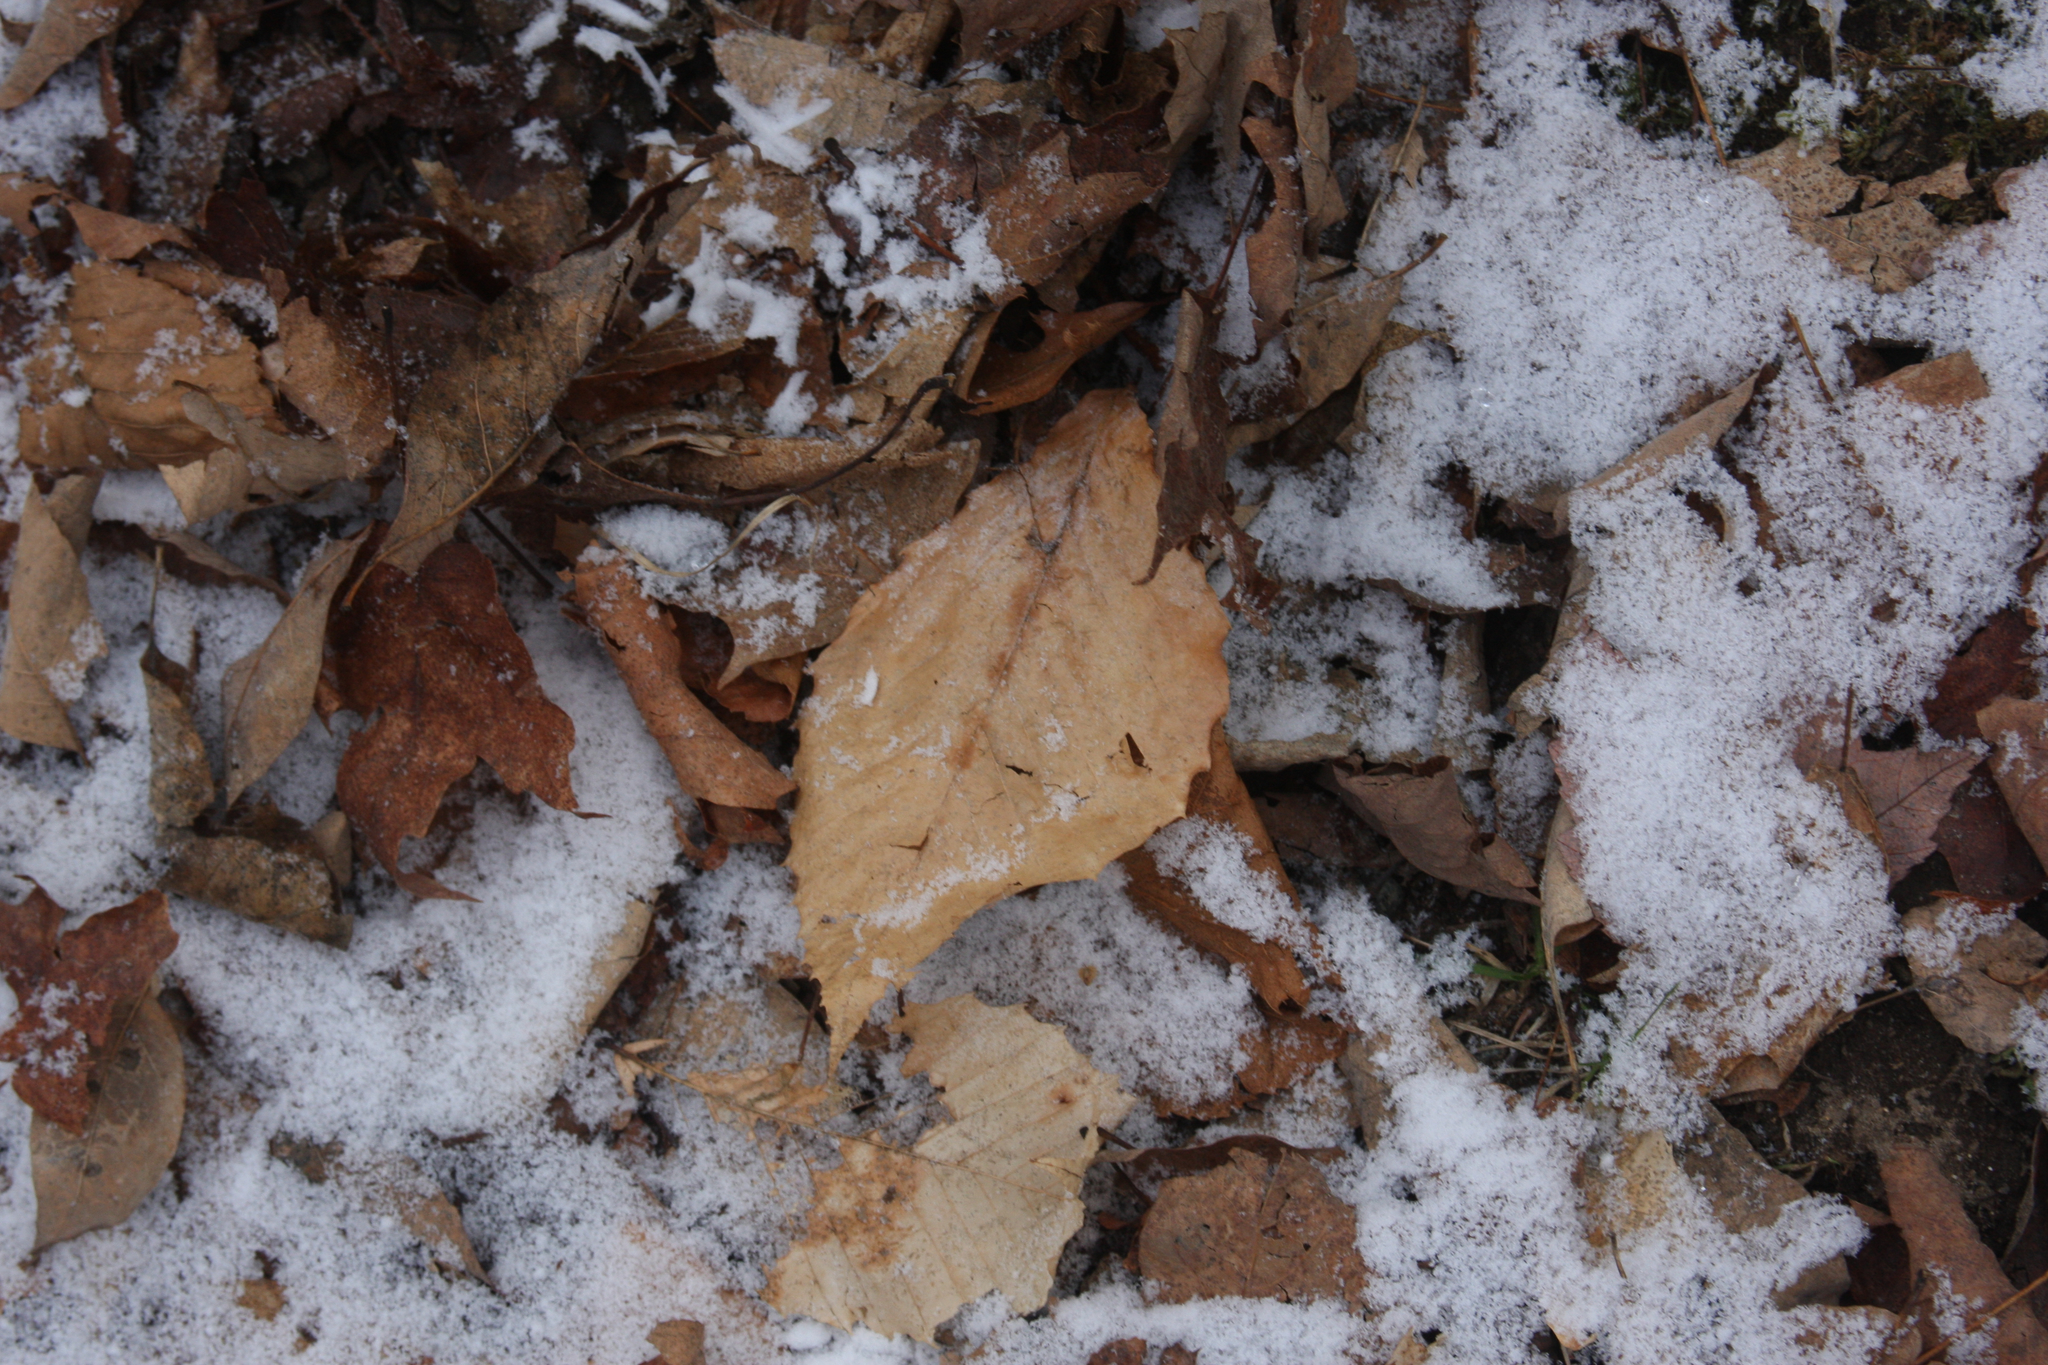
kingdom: Plantae
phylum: Tracheophyta
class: Magnoliopsida
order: Fagales
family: Fagaceae
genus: Fagus
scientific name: Fagus grandifolia
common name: American beech
